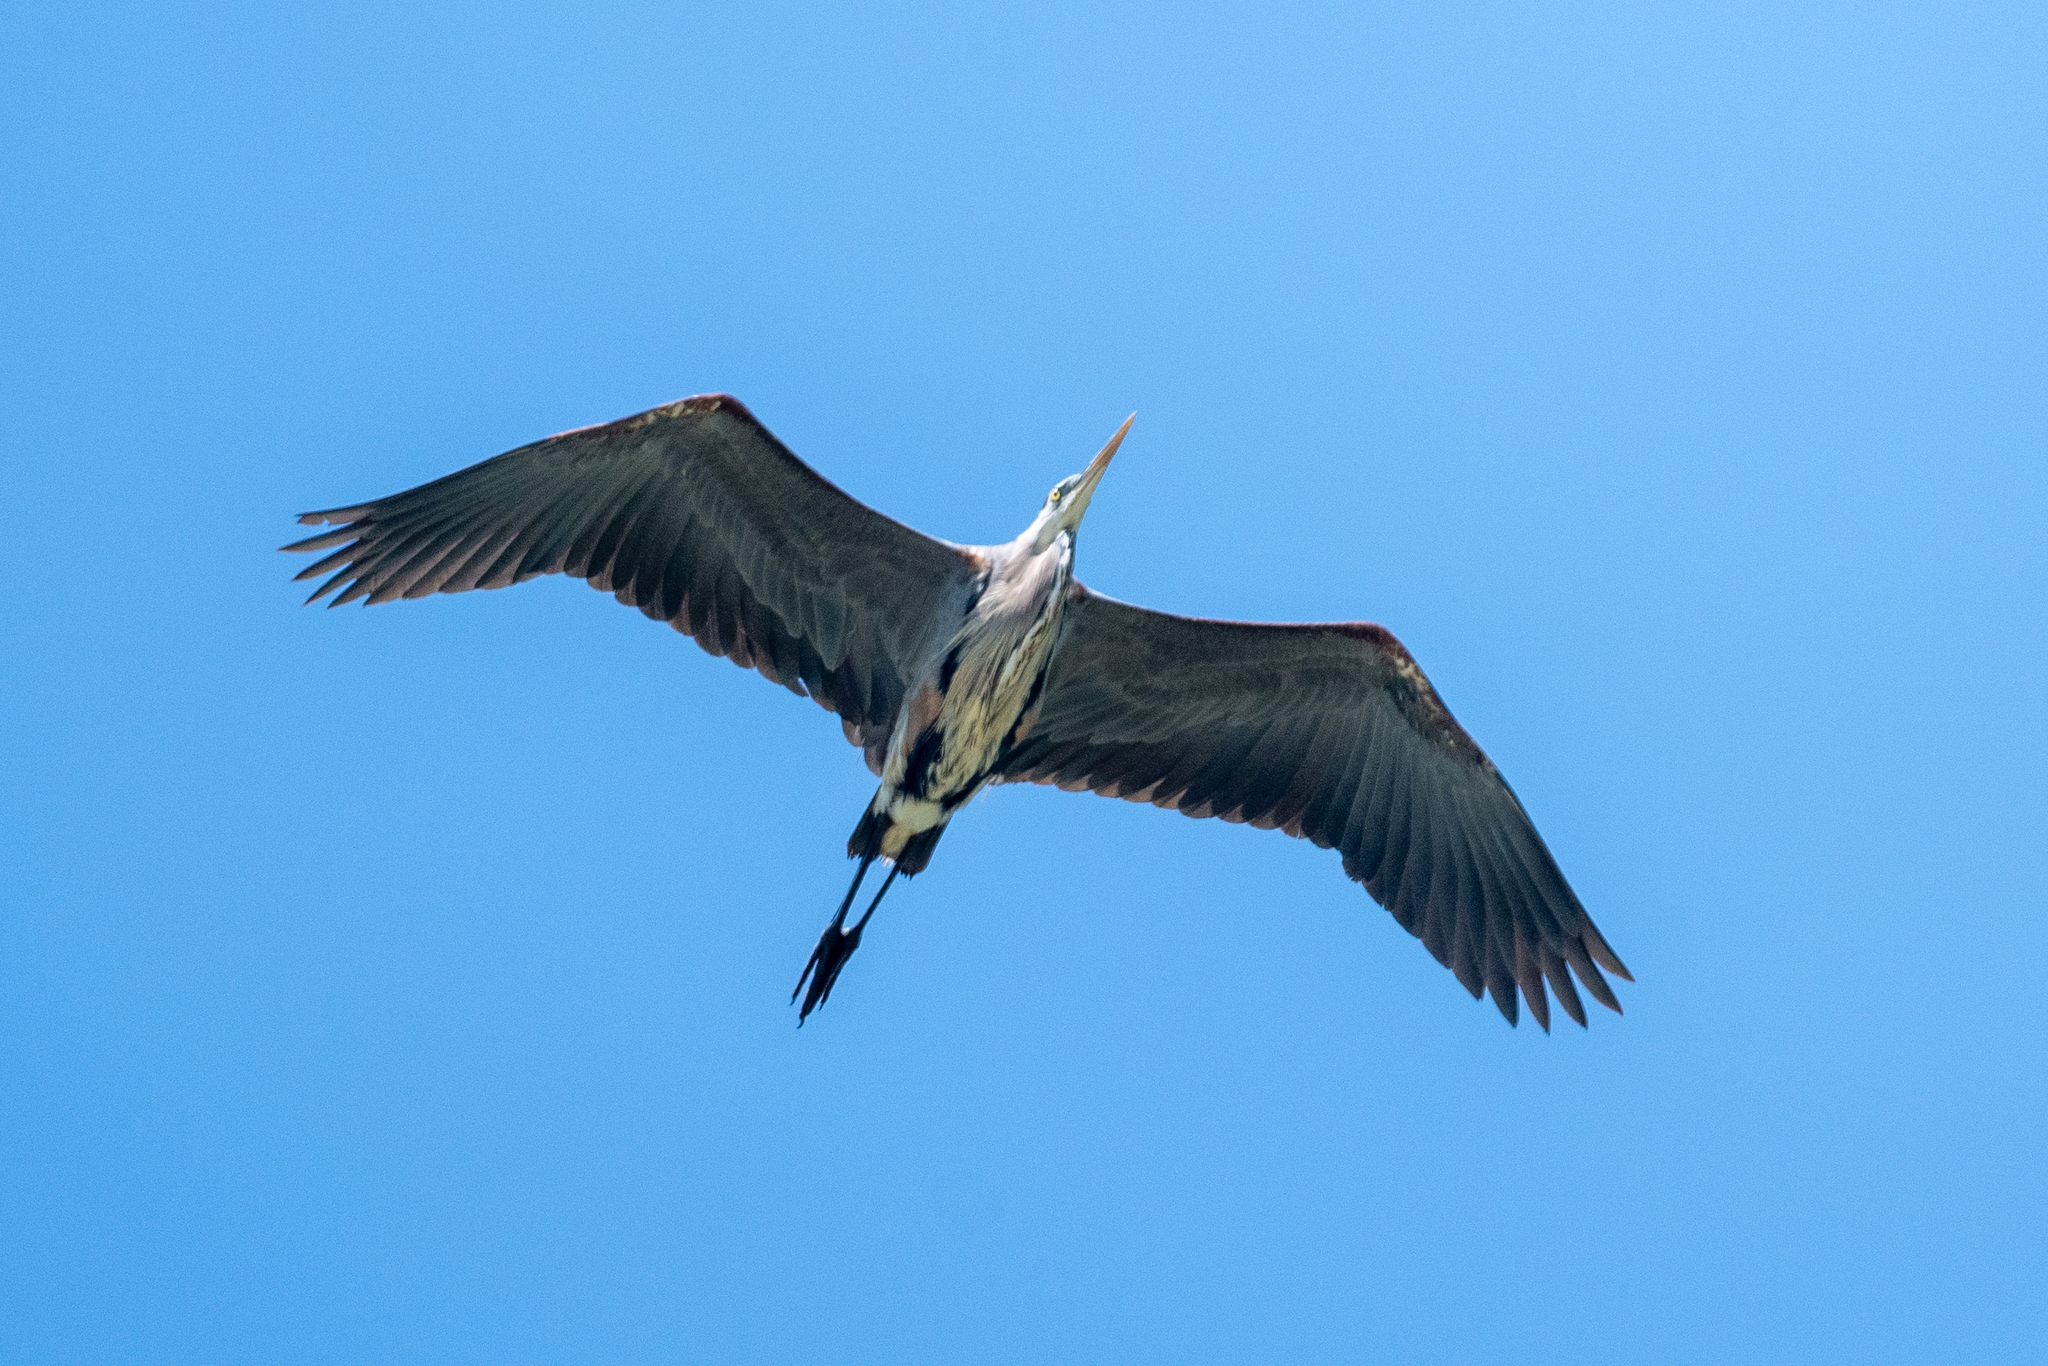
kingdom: Animalia
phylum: Chordata
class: Aves
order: Pelecaniformes
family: Ardeidae
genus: Ardea
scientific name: Ardea herodias
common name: Great blue heron
